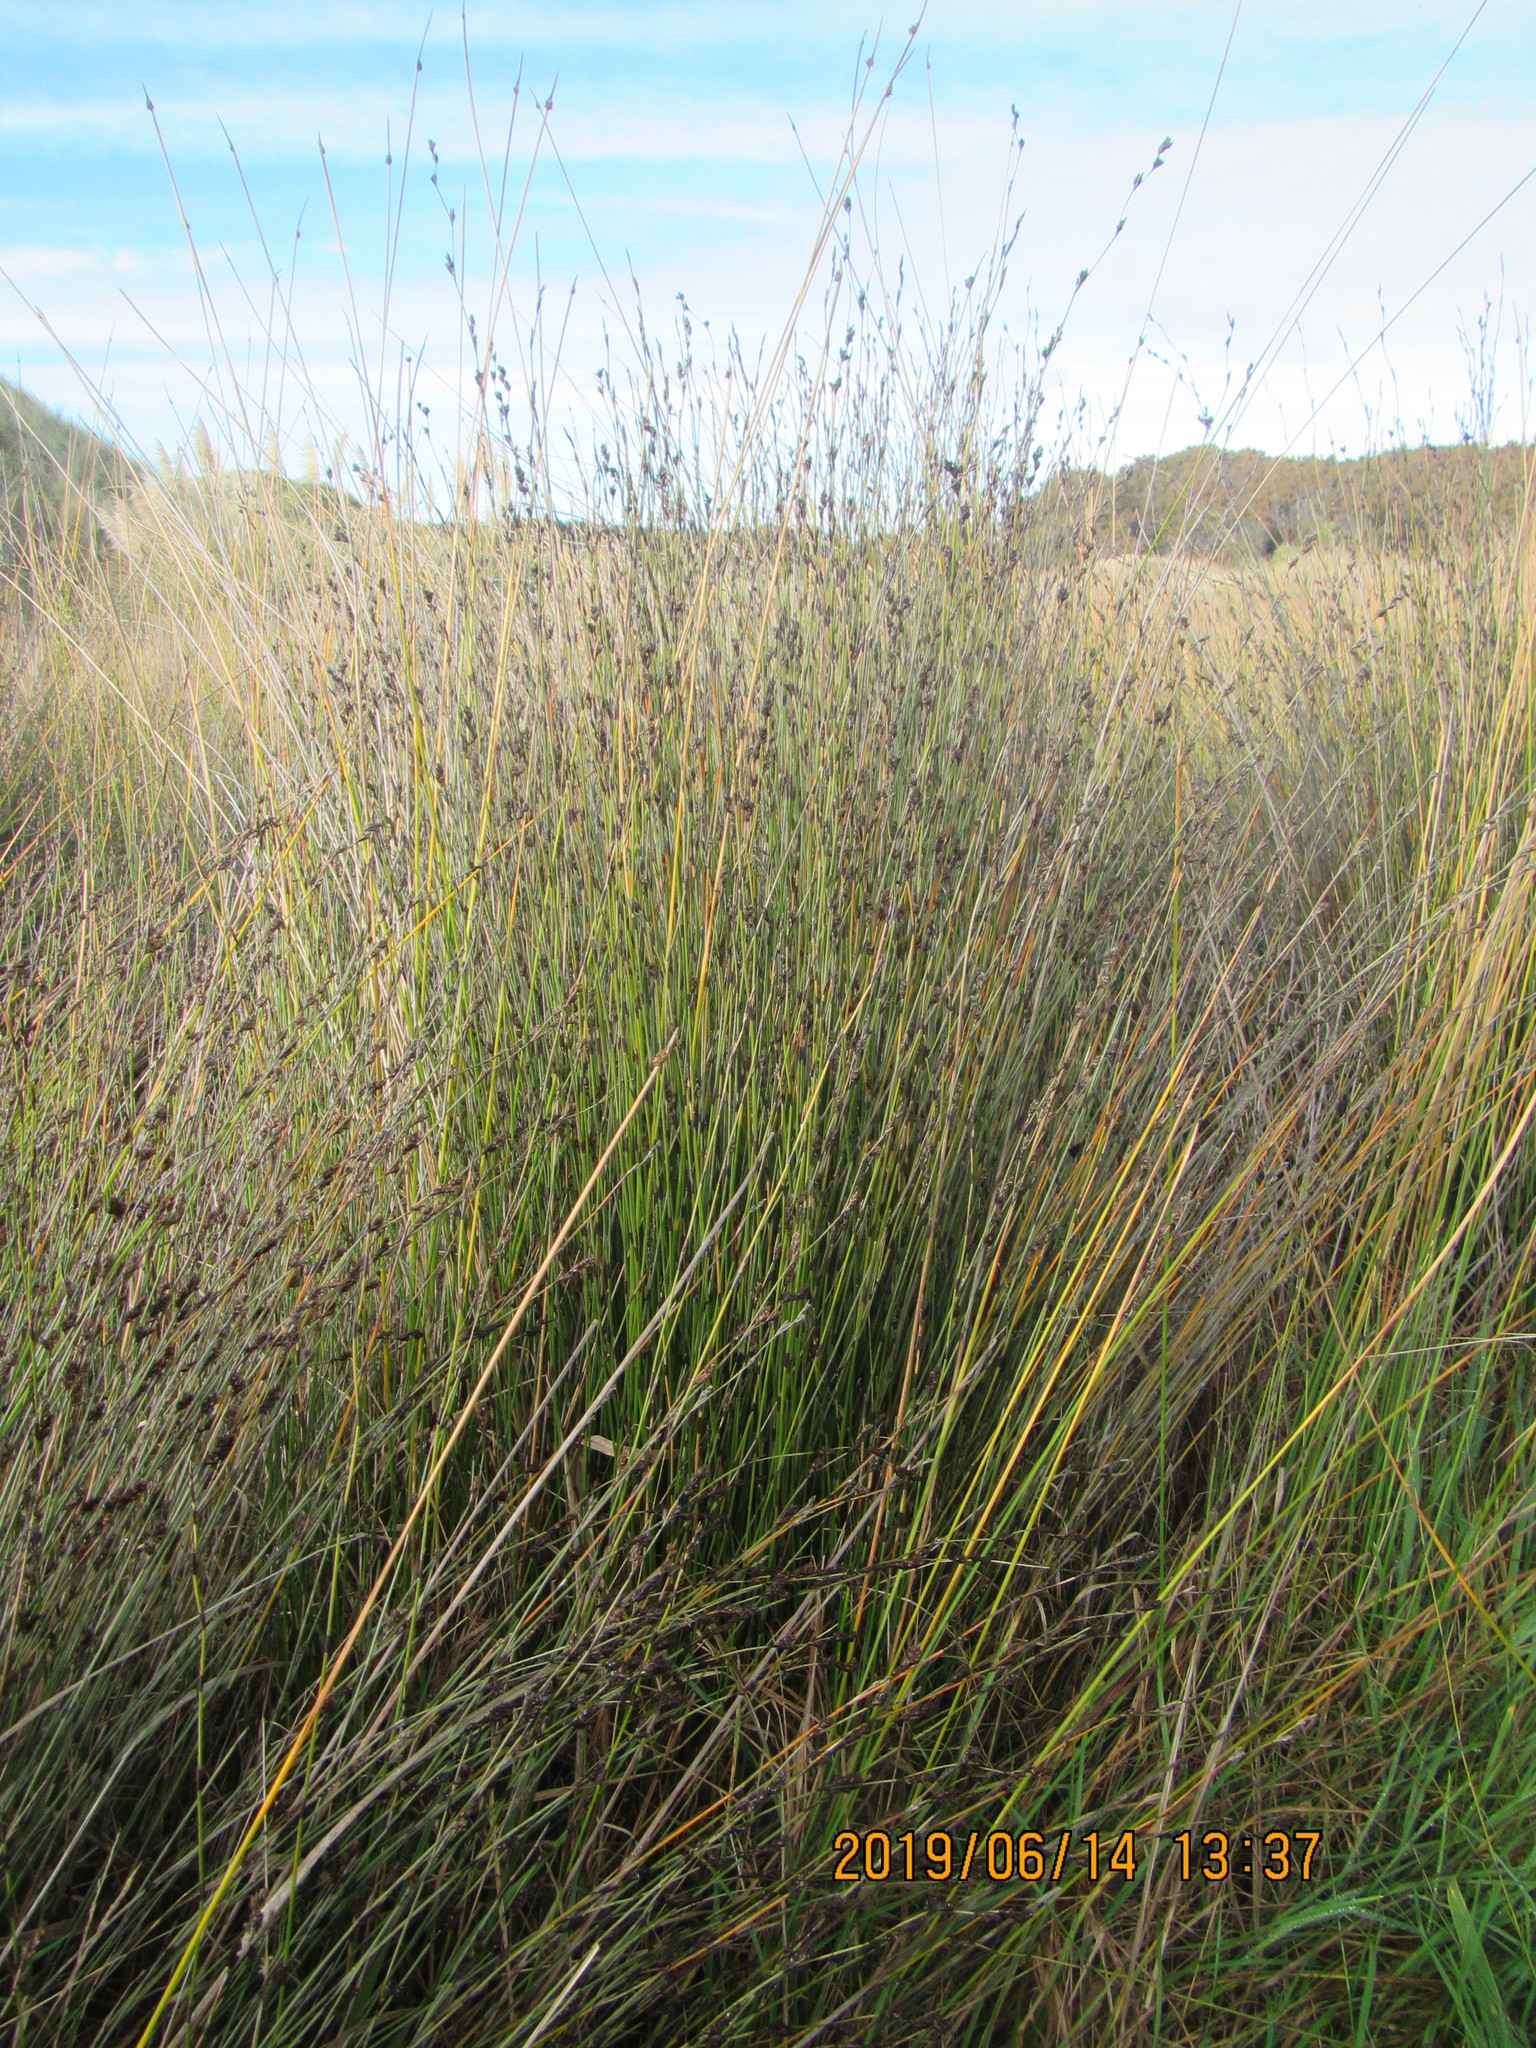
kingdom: Plantae
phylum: Tracheophyta
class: Liliopsida
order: Poales
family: Restionaceae
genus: Apodasmia
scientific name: Apodasmia similis
